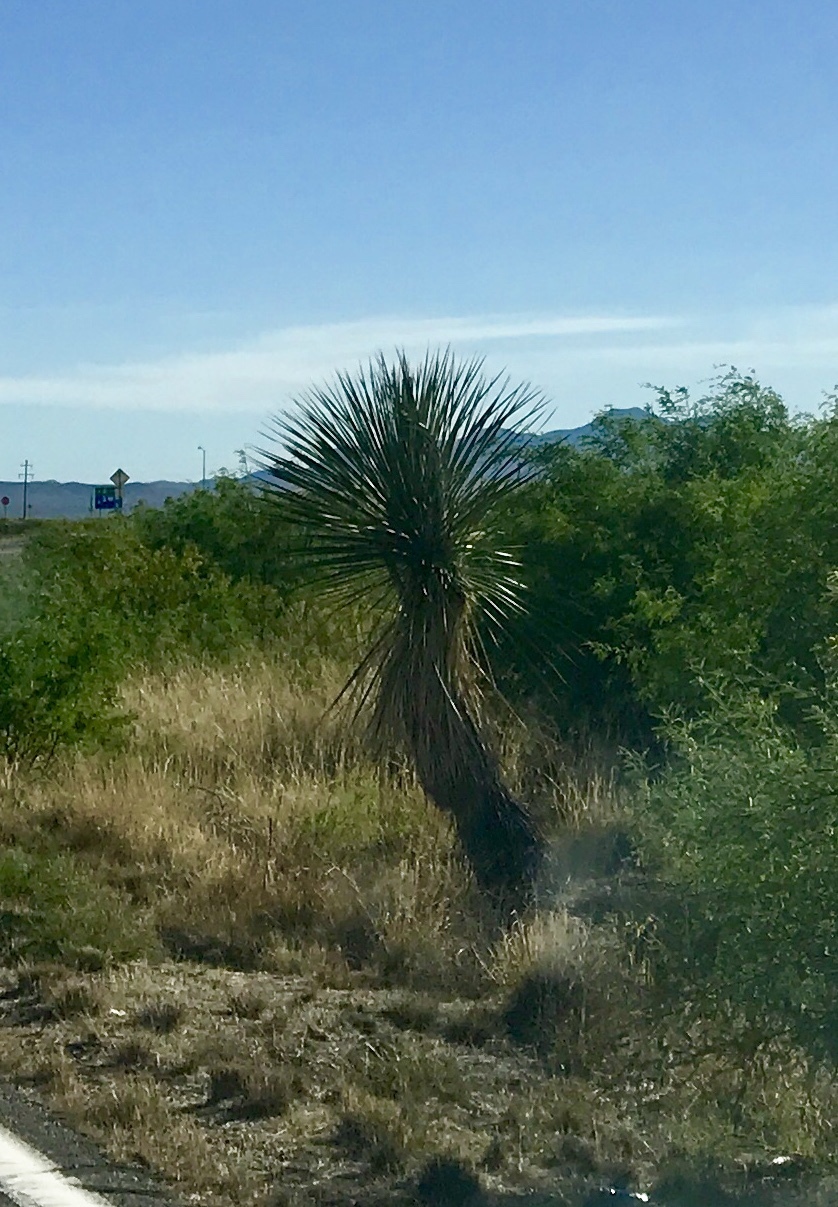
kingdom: Plantae
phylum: Tracheophyta
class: Liliopsida
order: Asparagales
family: Asparagaceae
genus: Yucca
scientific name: Yucca elata
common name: Palmella
